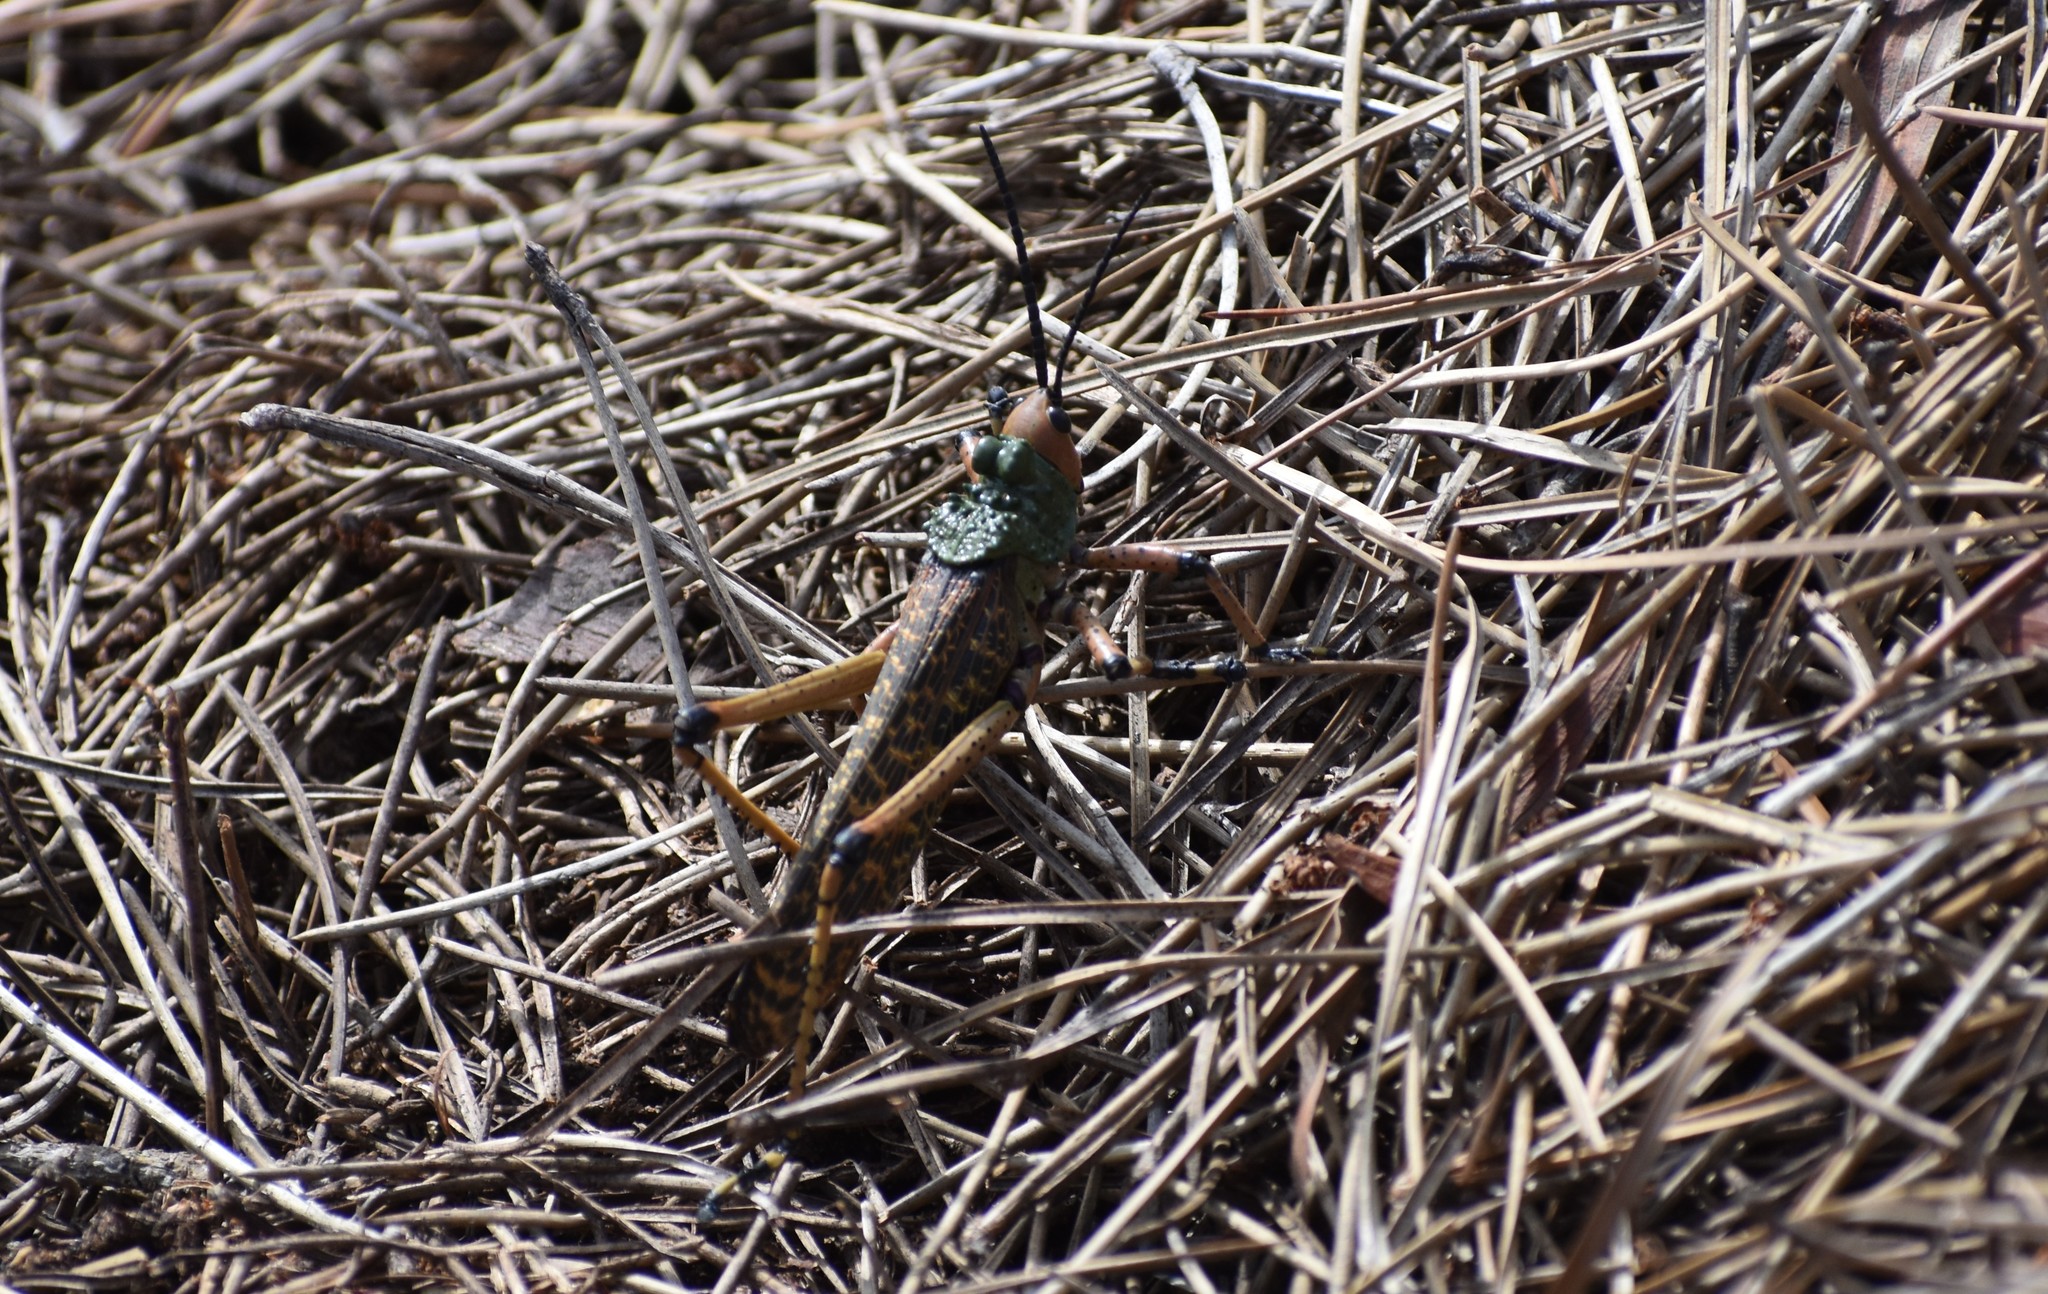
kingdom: Animalia
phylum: Arthropoda
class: Insecta
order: Orthoptera
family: Pyrgomorphidae
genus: Phymateus
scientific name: Phymateus leprosus
